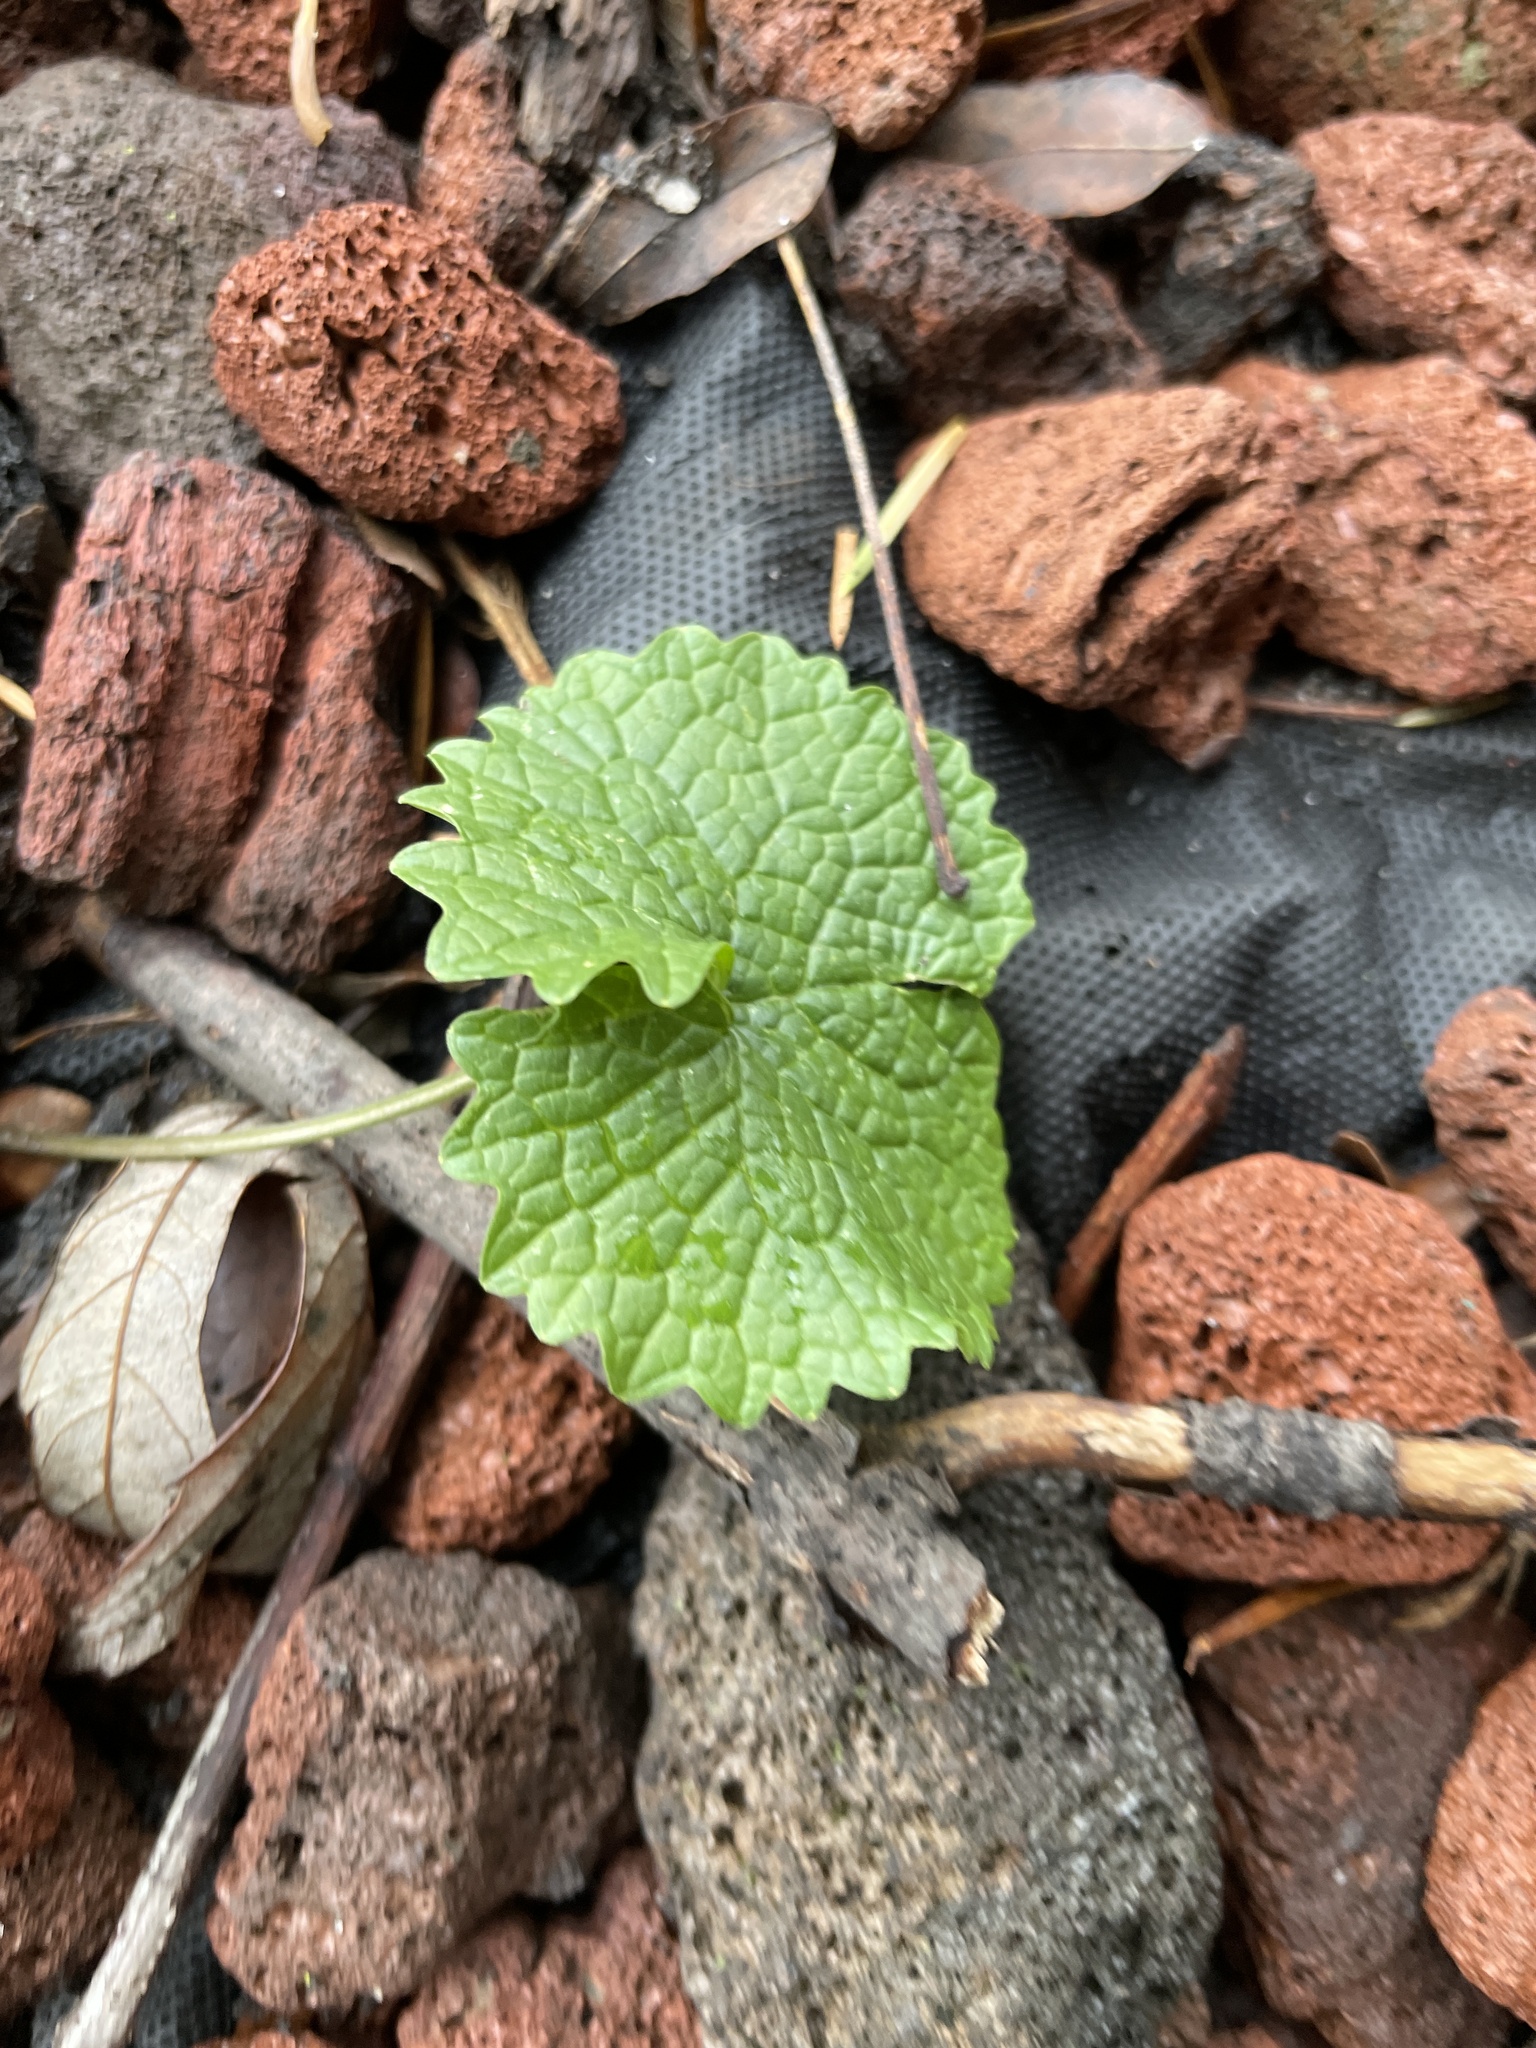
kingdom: Plantae
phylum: Tracheophyta
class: Magnoliopsida
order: Brassicales
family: Brassicaceae
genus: Alliaria
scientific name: Alliaria petiolata
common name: Garlic mustard
